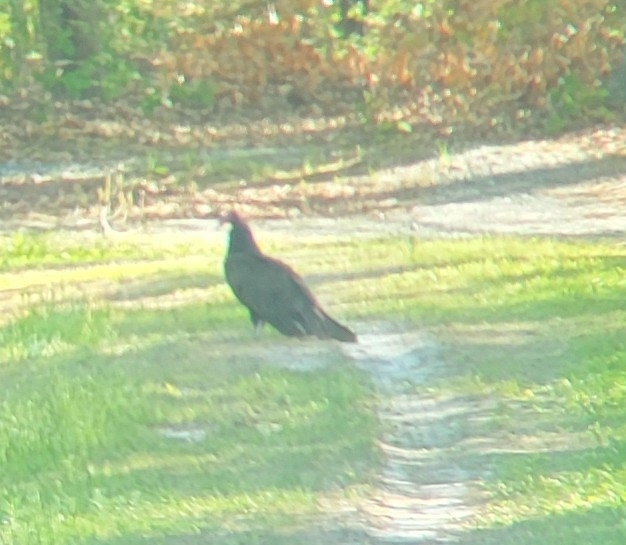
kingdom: Animalia
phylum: Chordata
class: Aves
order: Accipitriformes
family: Cathartidae
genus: Cathartes
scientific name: Cathartes aura
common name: Turkey vulture
